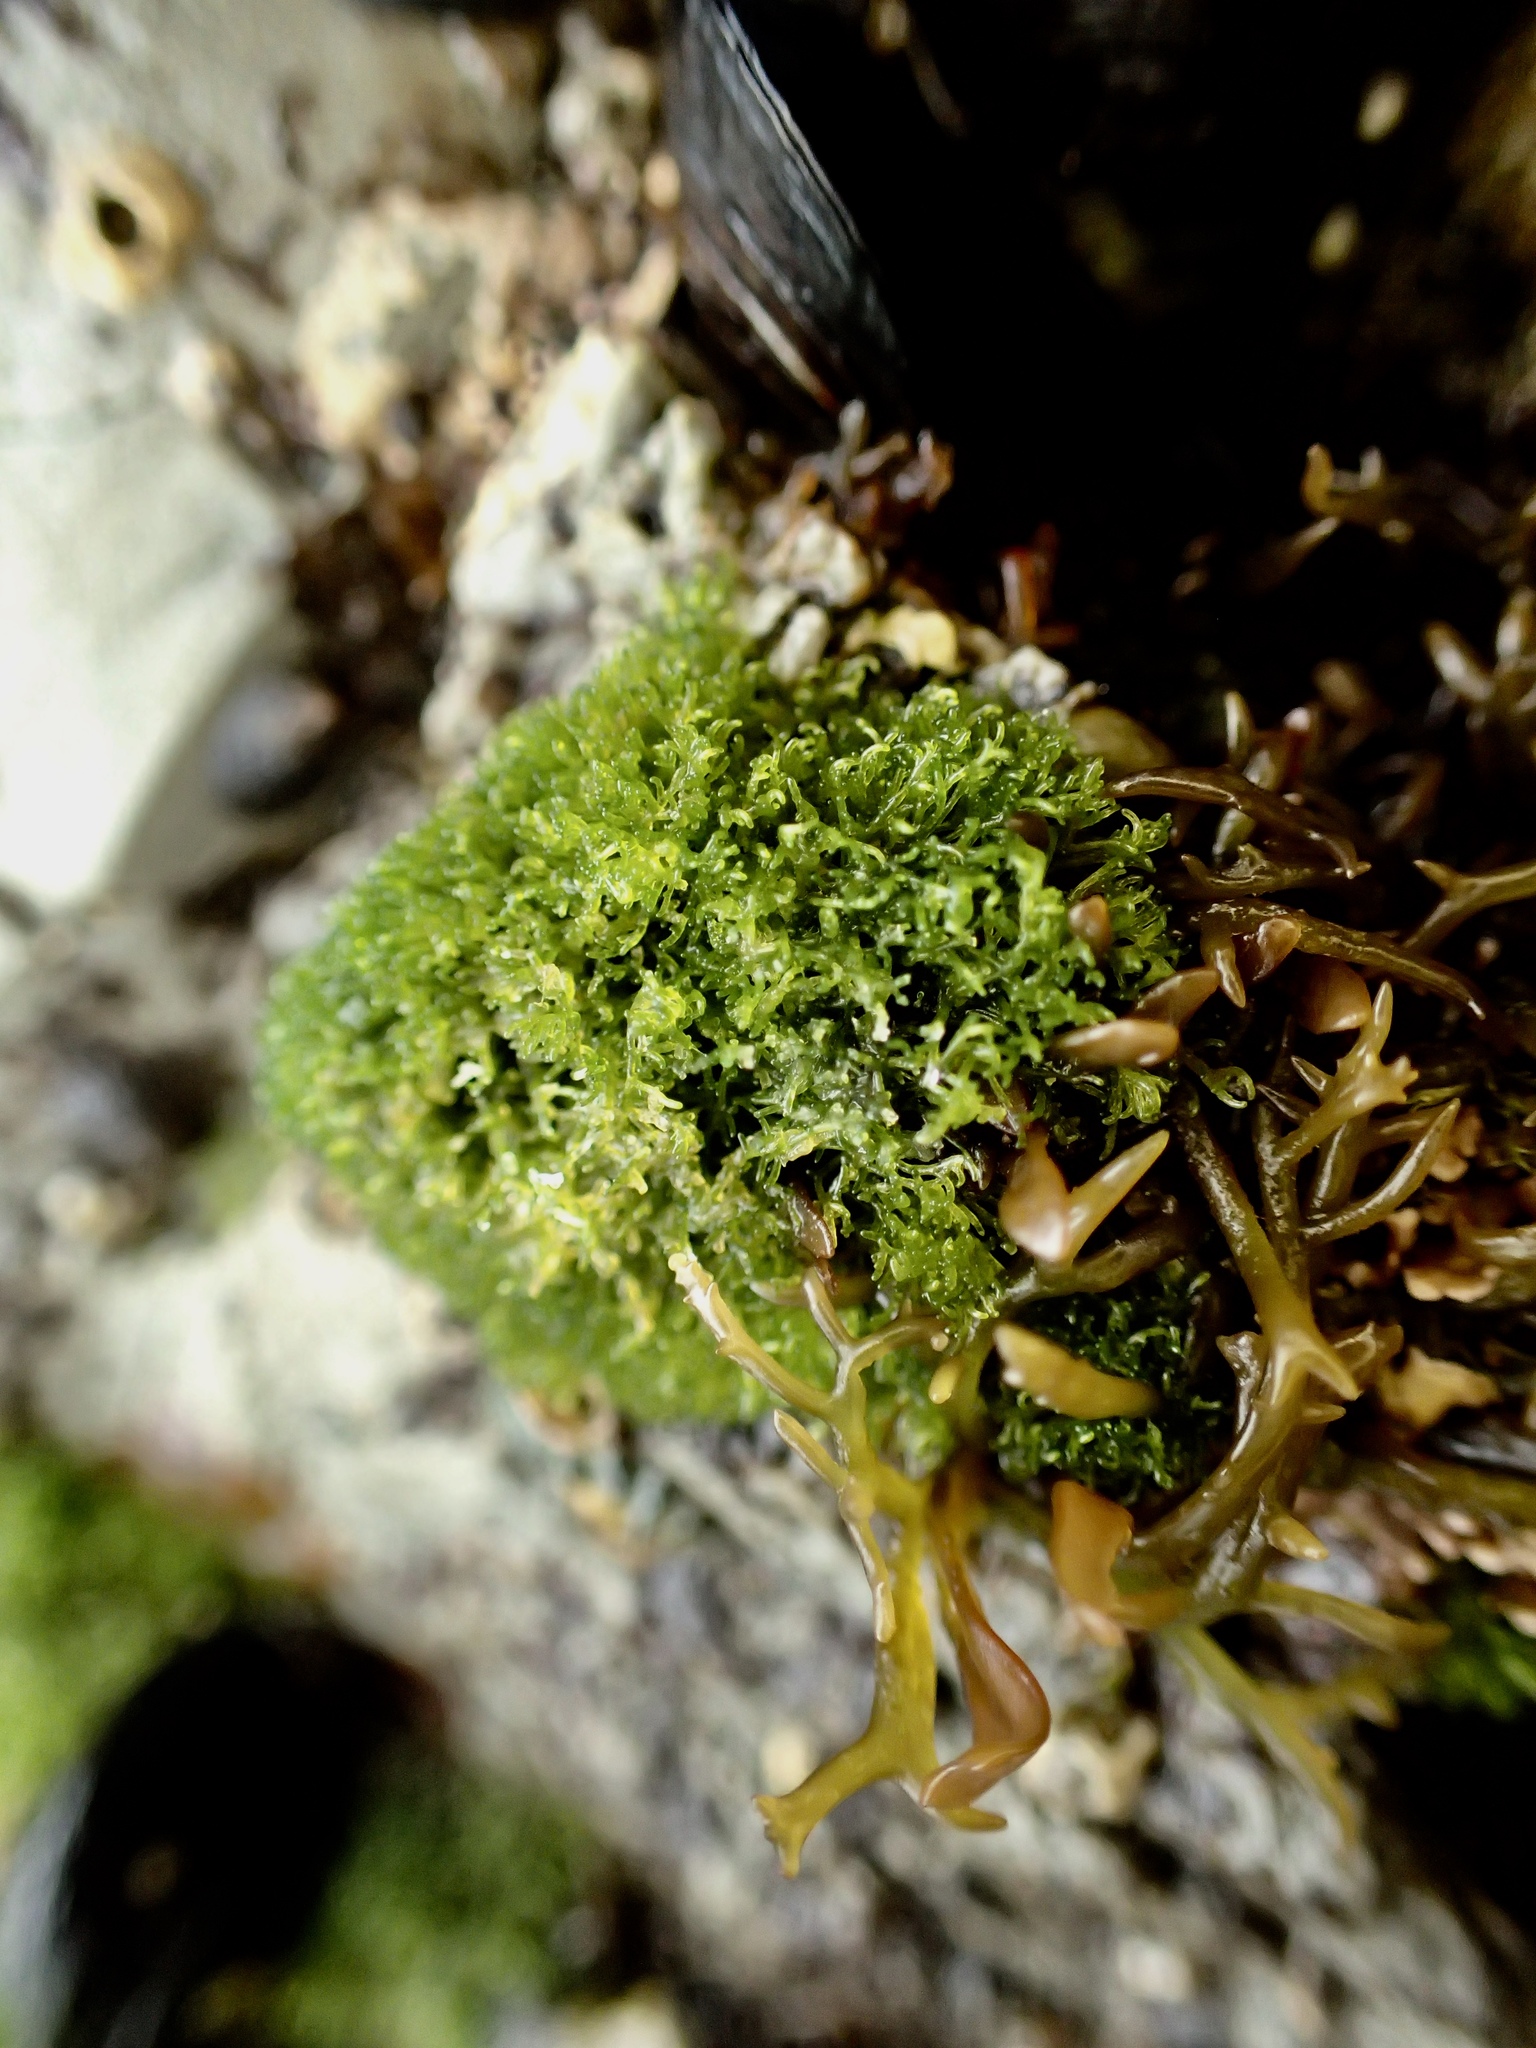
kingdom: Plantae
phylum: Chlorophyta
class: Ulvophyceae
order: Cladophorales
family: Cladophoraceae
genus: Cladophora
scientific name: Cladophora columbiana
